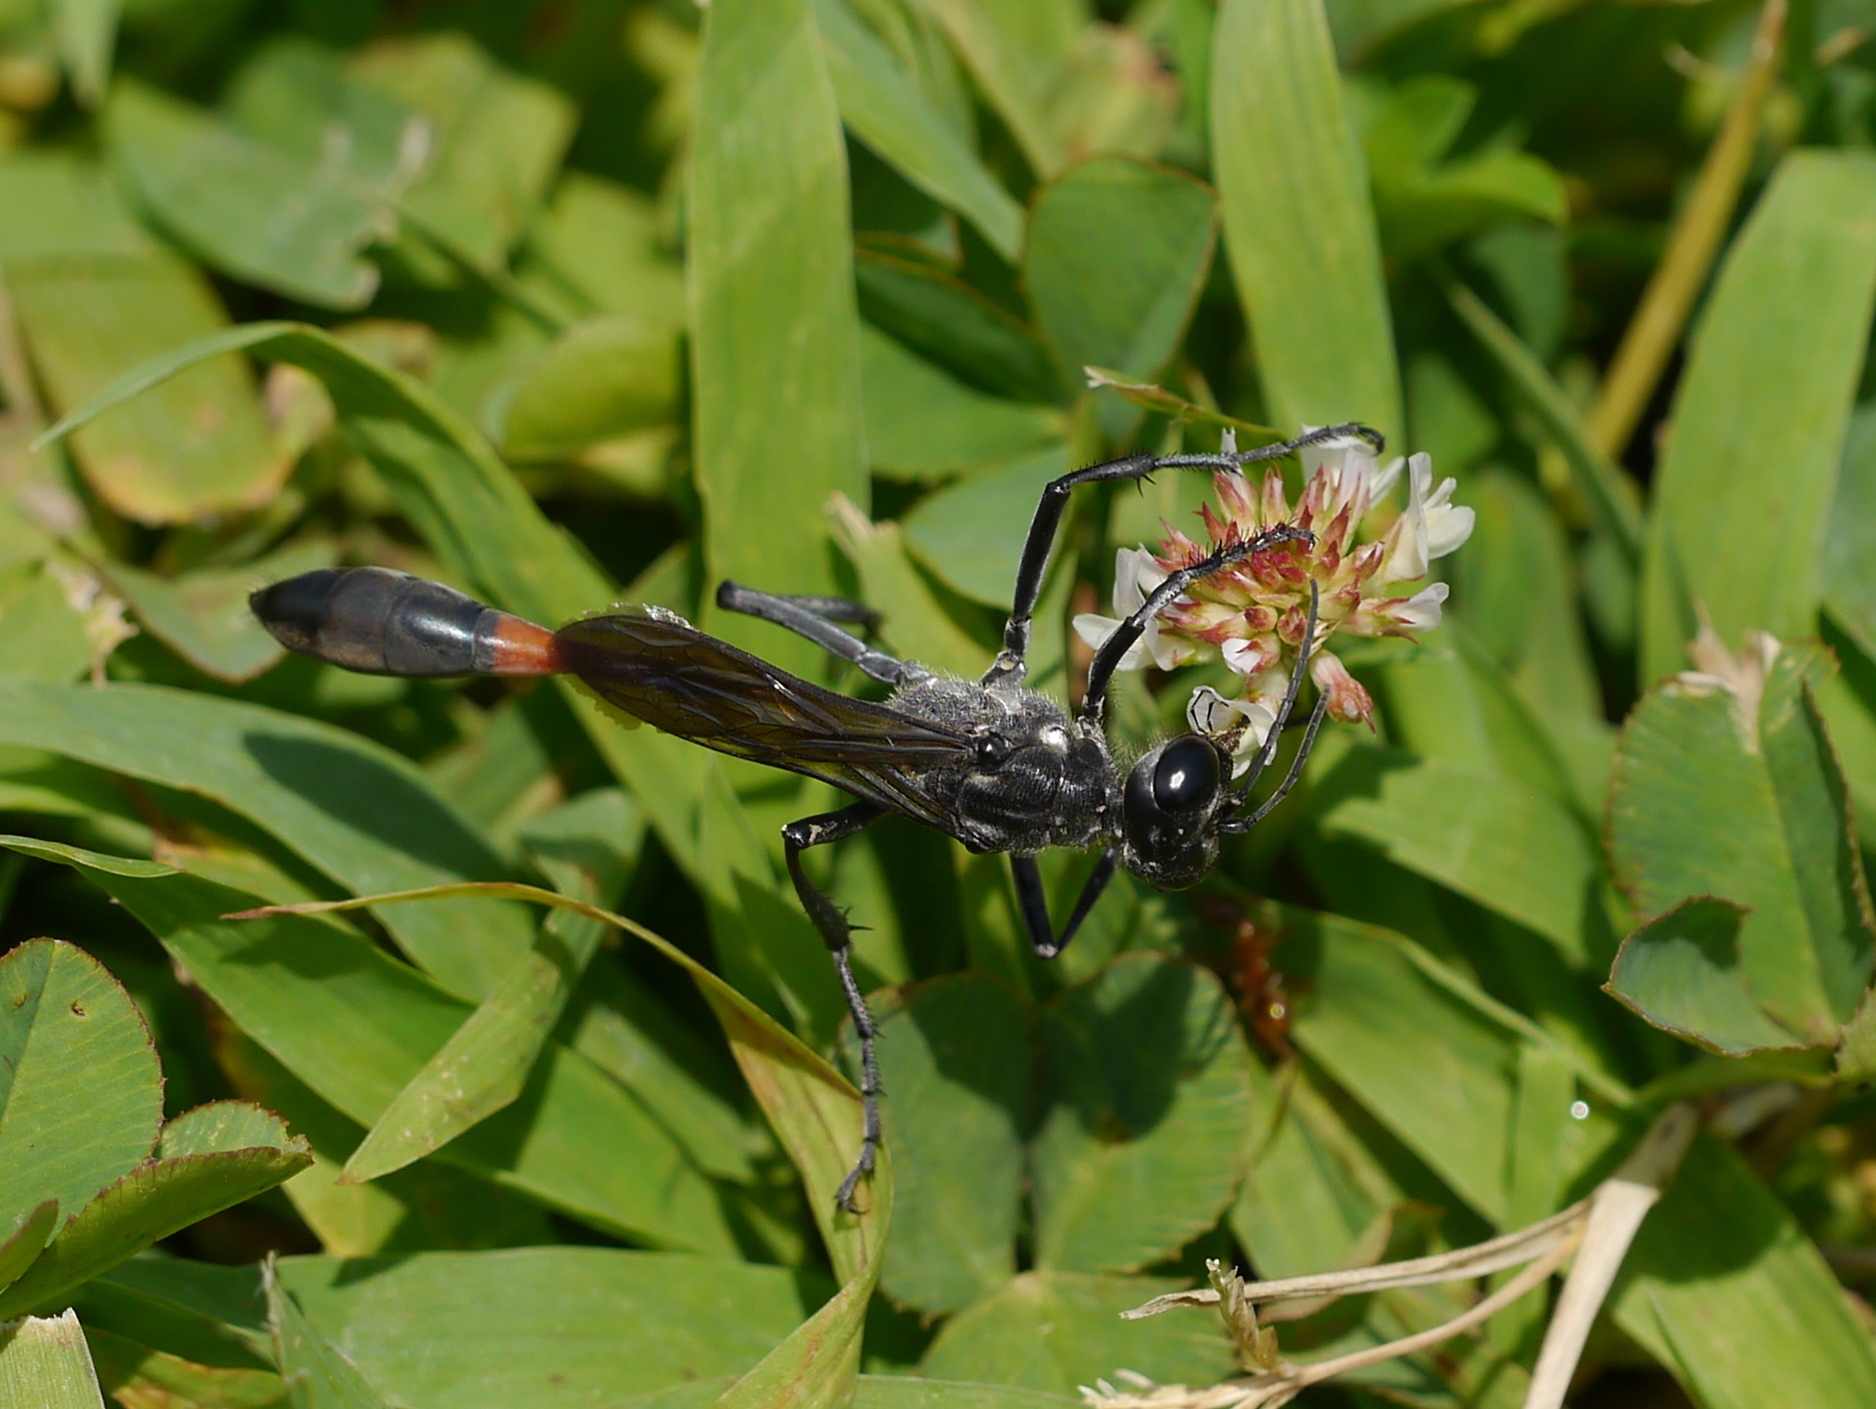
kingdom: Animalia
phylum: Arthropoda
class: Insecta
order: Hymenoptera
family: Sphecidae
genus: Ammophila
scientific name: Ammophila nigricans
